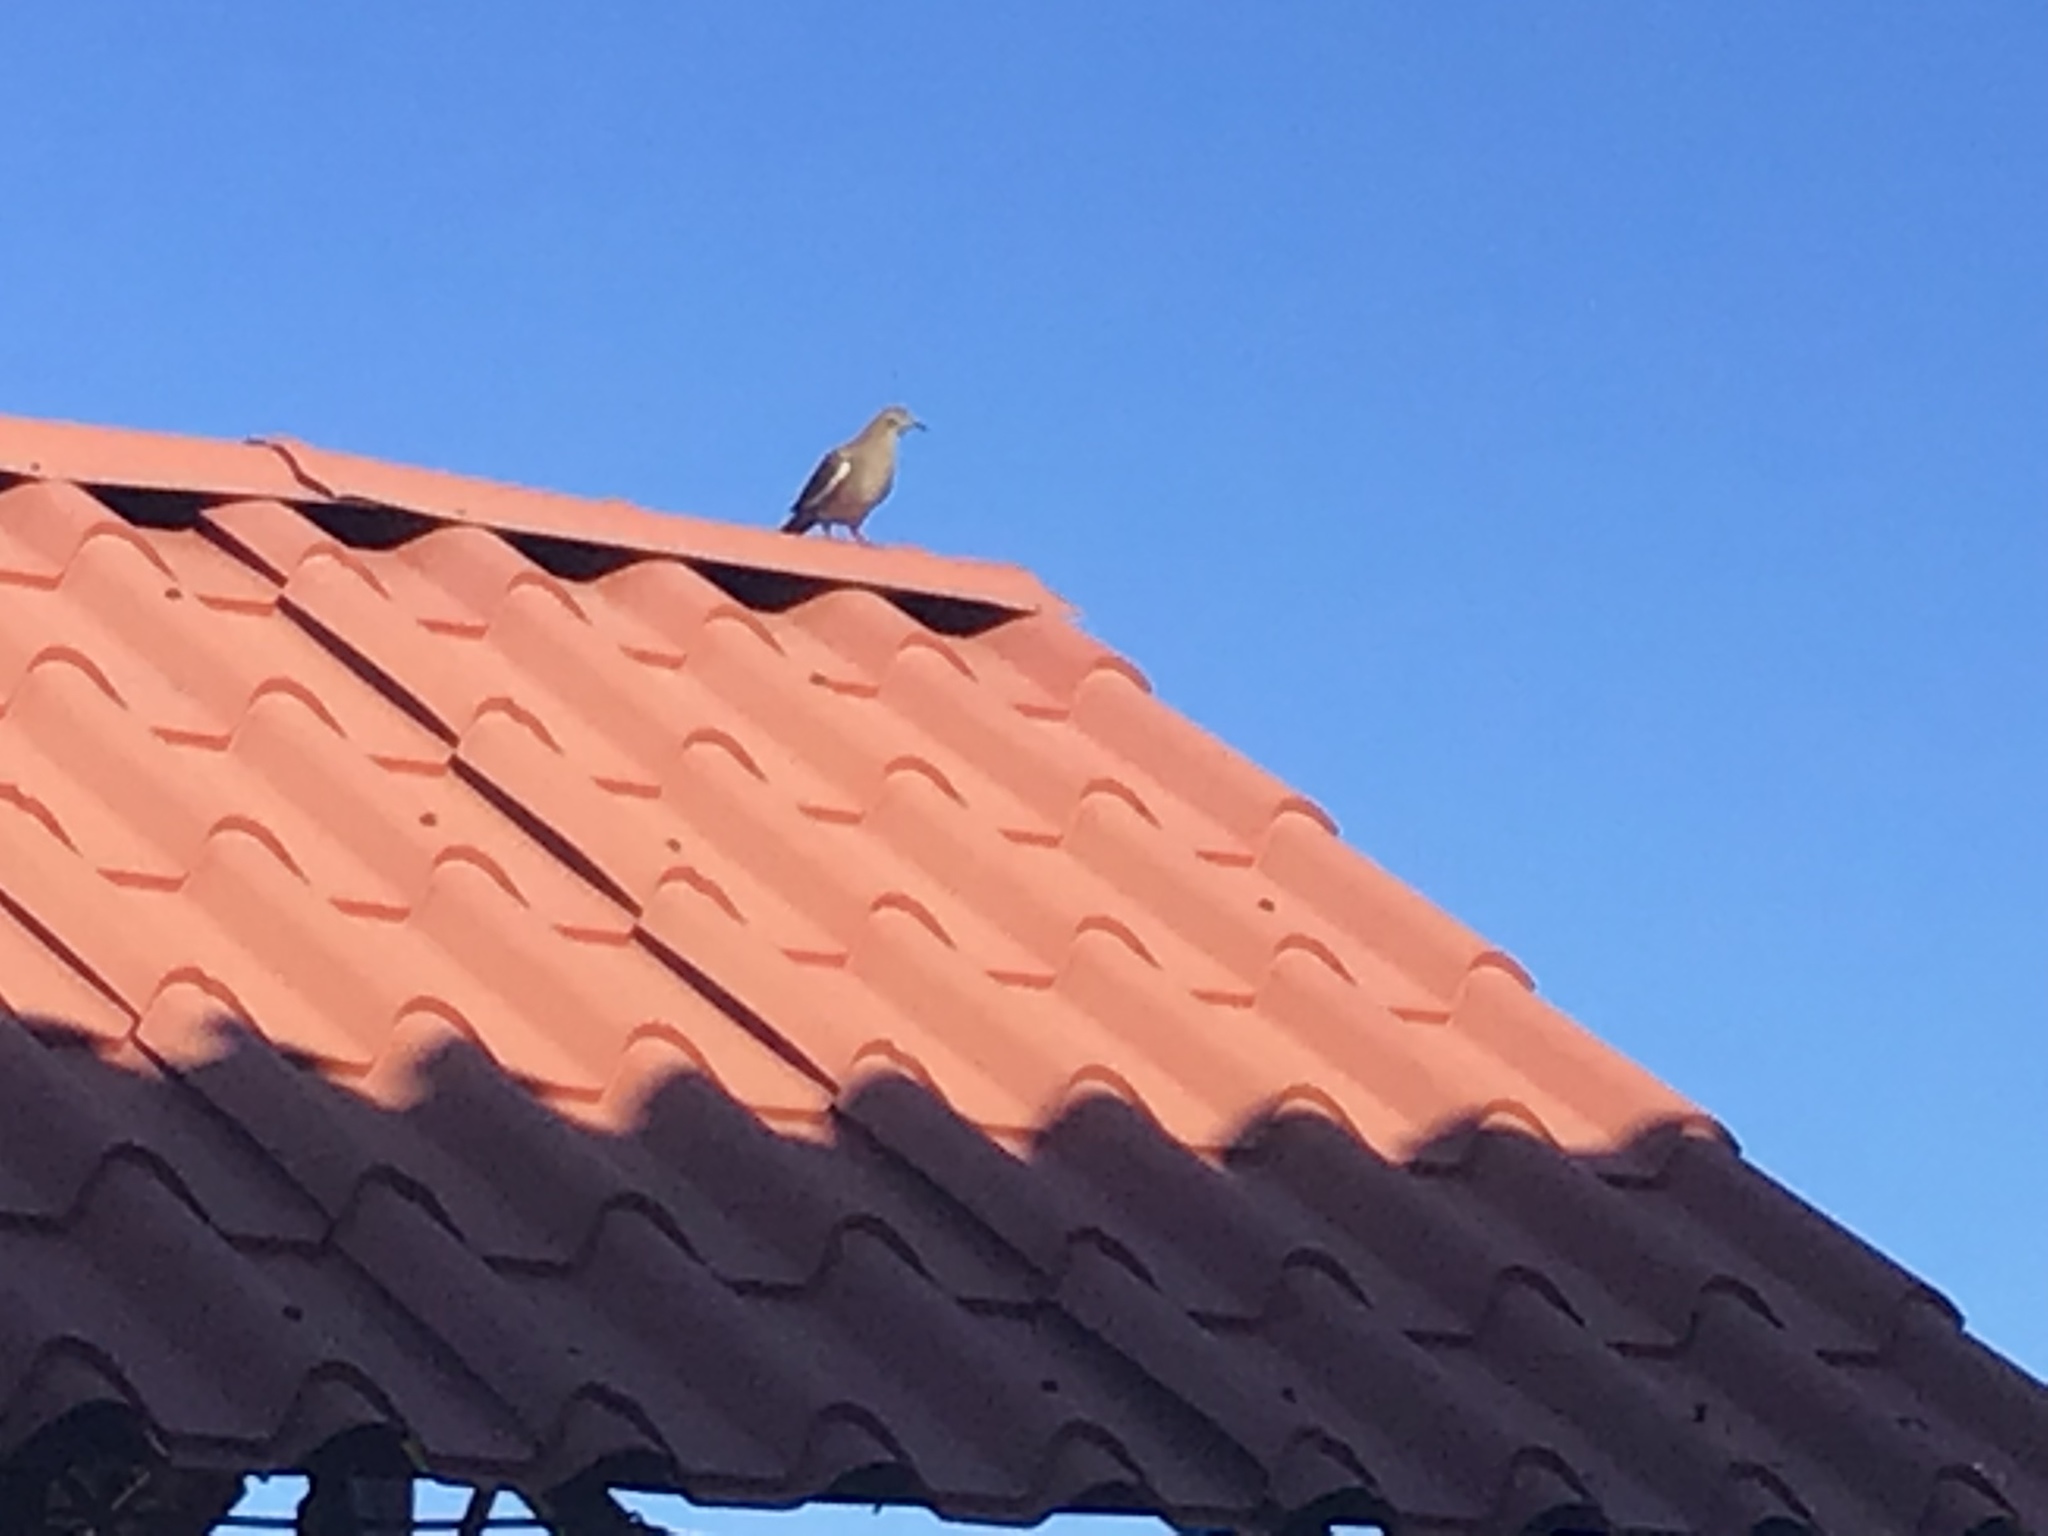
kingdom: Animalia
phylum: Chordata
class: Aves
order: Columbiformes
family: Columbidae
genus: Zenaida
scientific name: Zenaida asiatica
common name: White-winged dove
